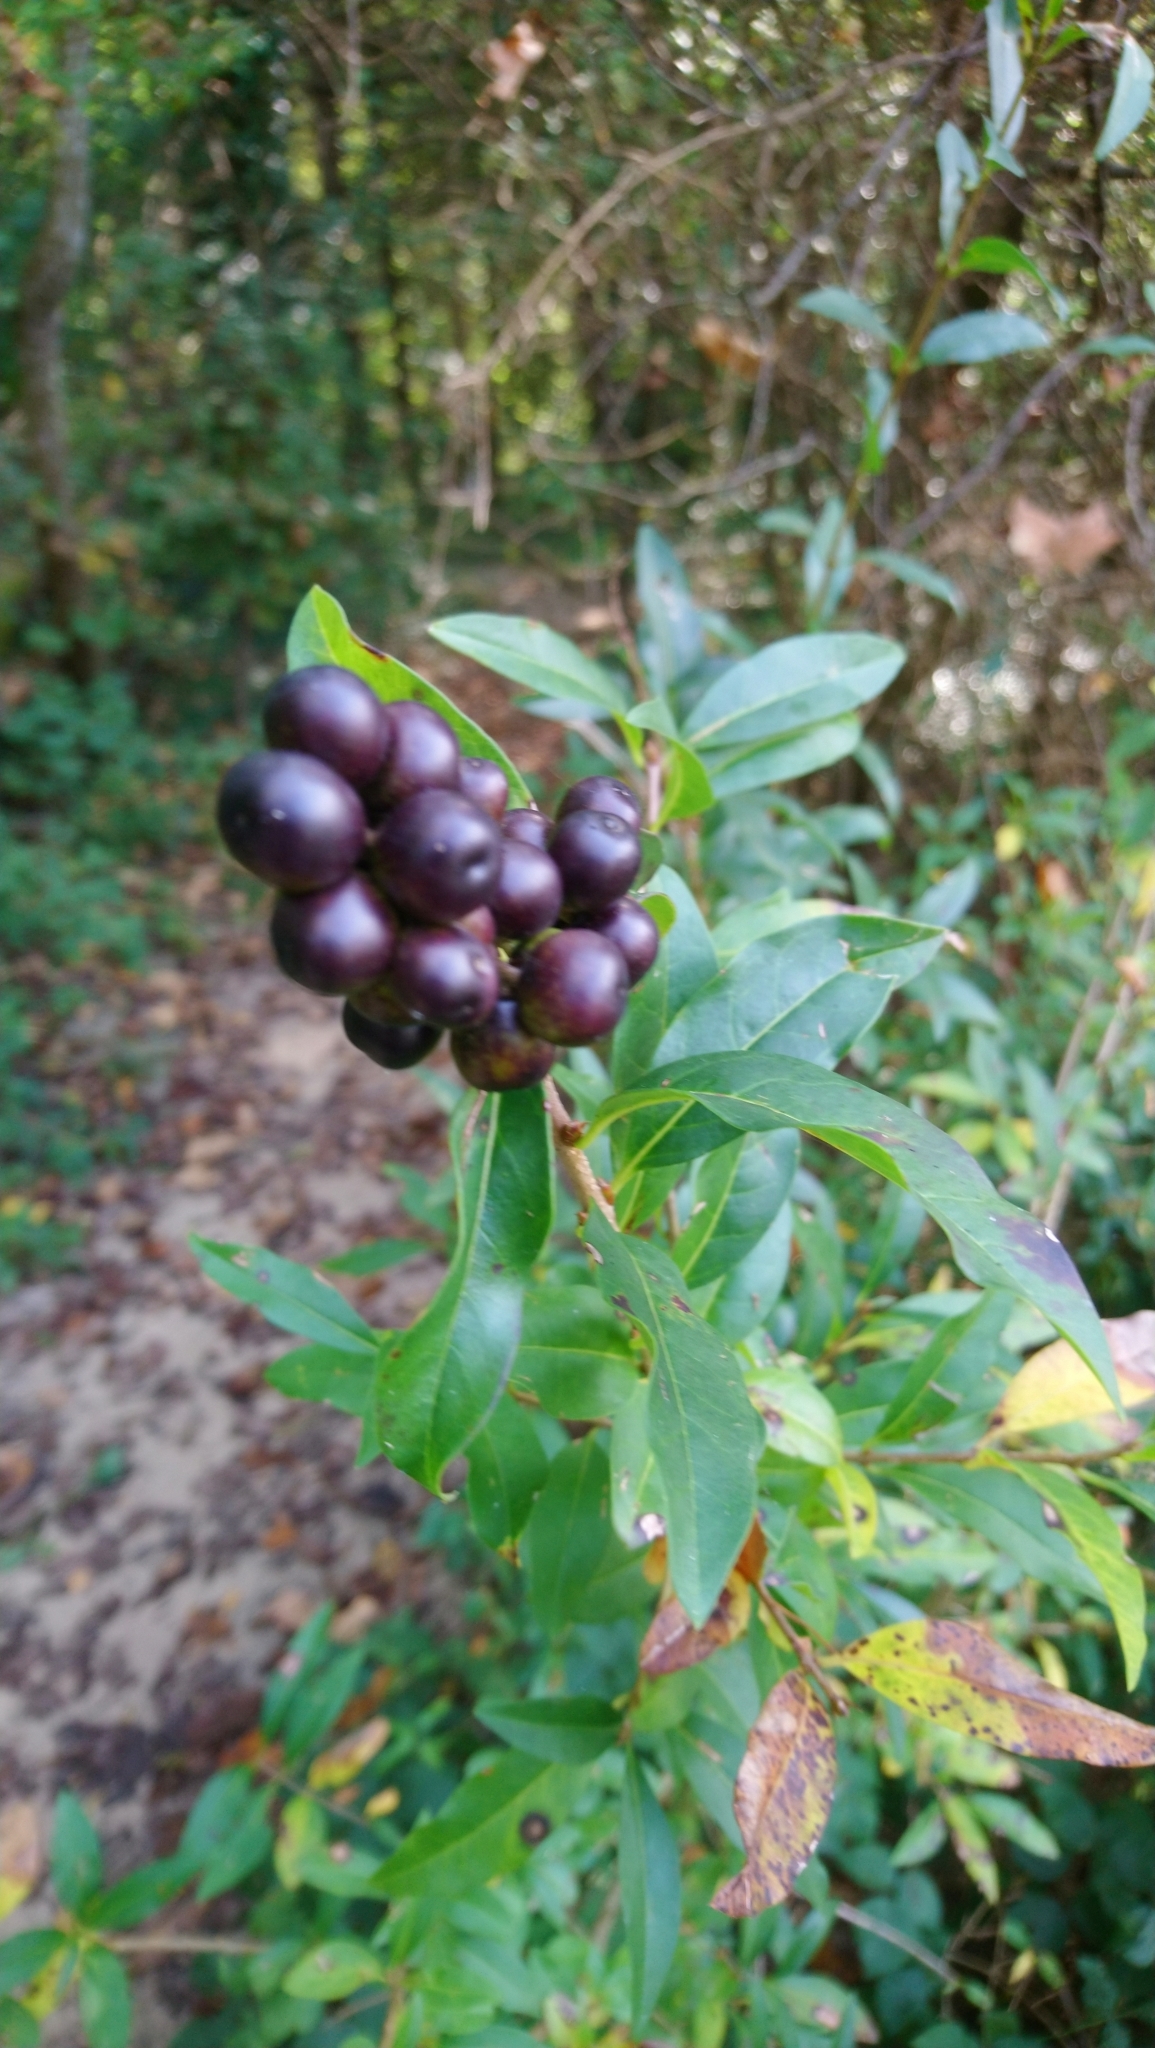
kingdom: Plantae
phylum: Tracheophyta
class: Magnoliopsida
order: Lamiales
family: Oleaceae
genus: Ligustrum
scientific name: Ligustrum vulgare
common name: Wild privet
